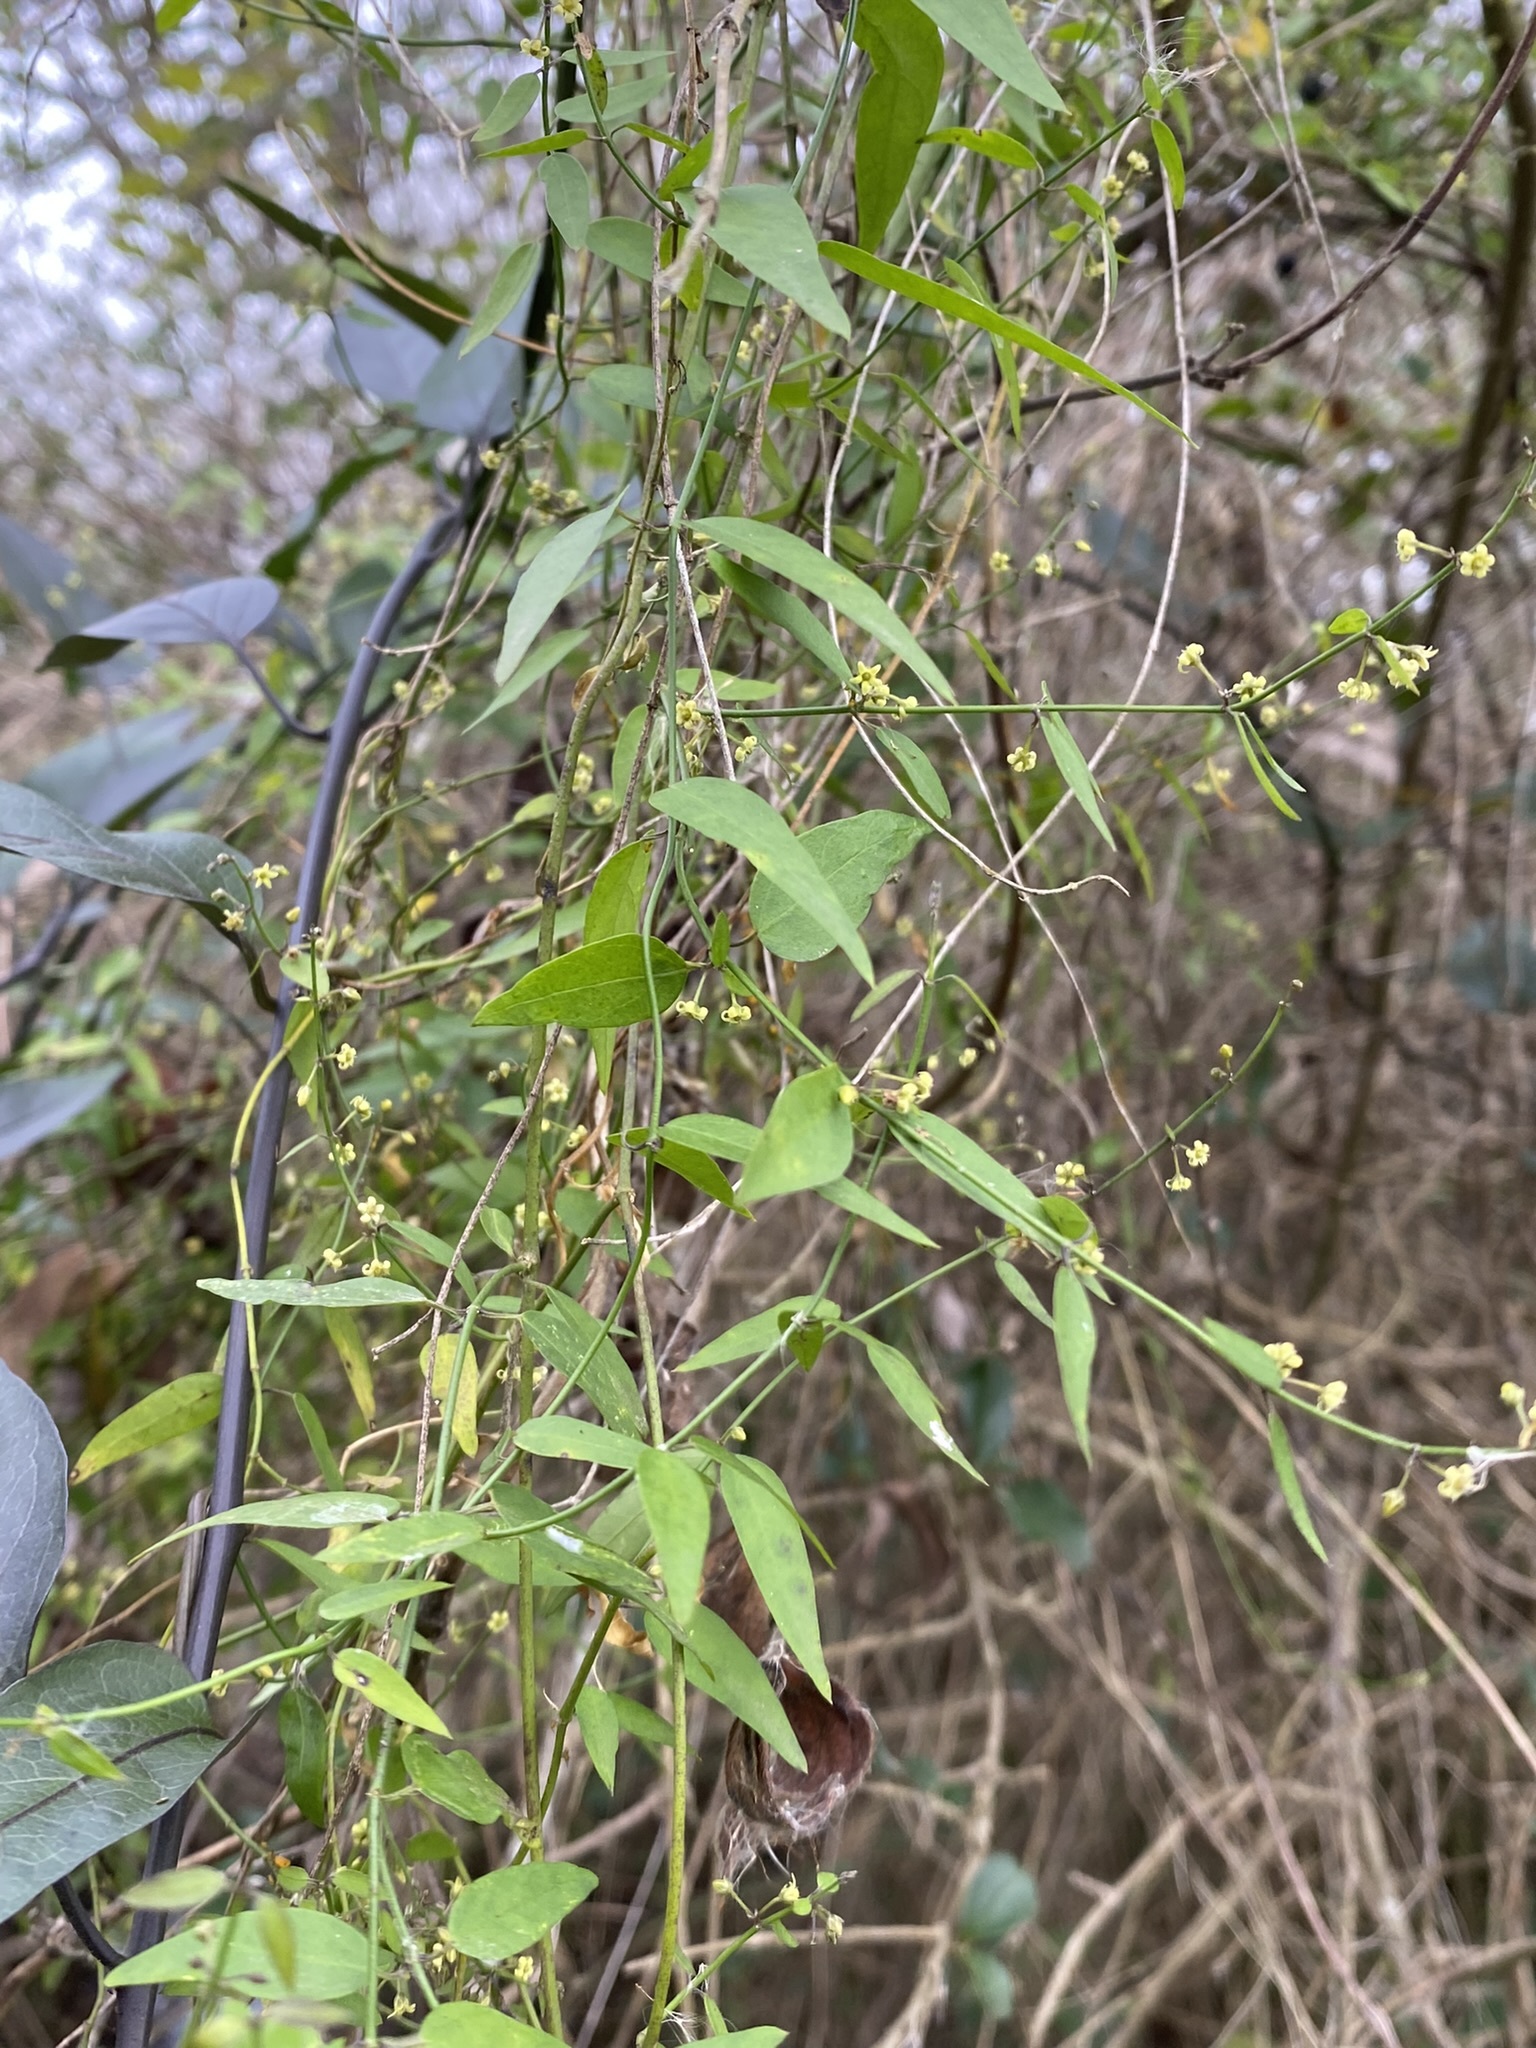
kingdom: Plantae
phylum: Tracheophyta
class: Magnoliopsida
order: Gentianales
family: Apocynaceae
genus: Orthosia
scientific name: Orthosia virgata
